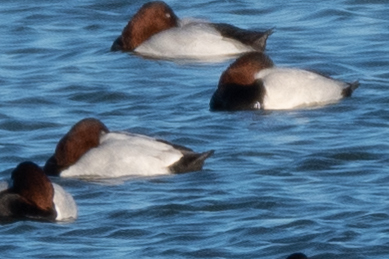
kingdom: Animalia
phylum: Chordata
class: Aves
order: Anseriformes
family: Anatidae
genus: Aythya
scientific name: Aythya valisineria
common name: Canvasback
